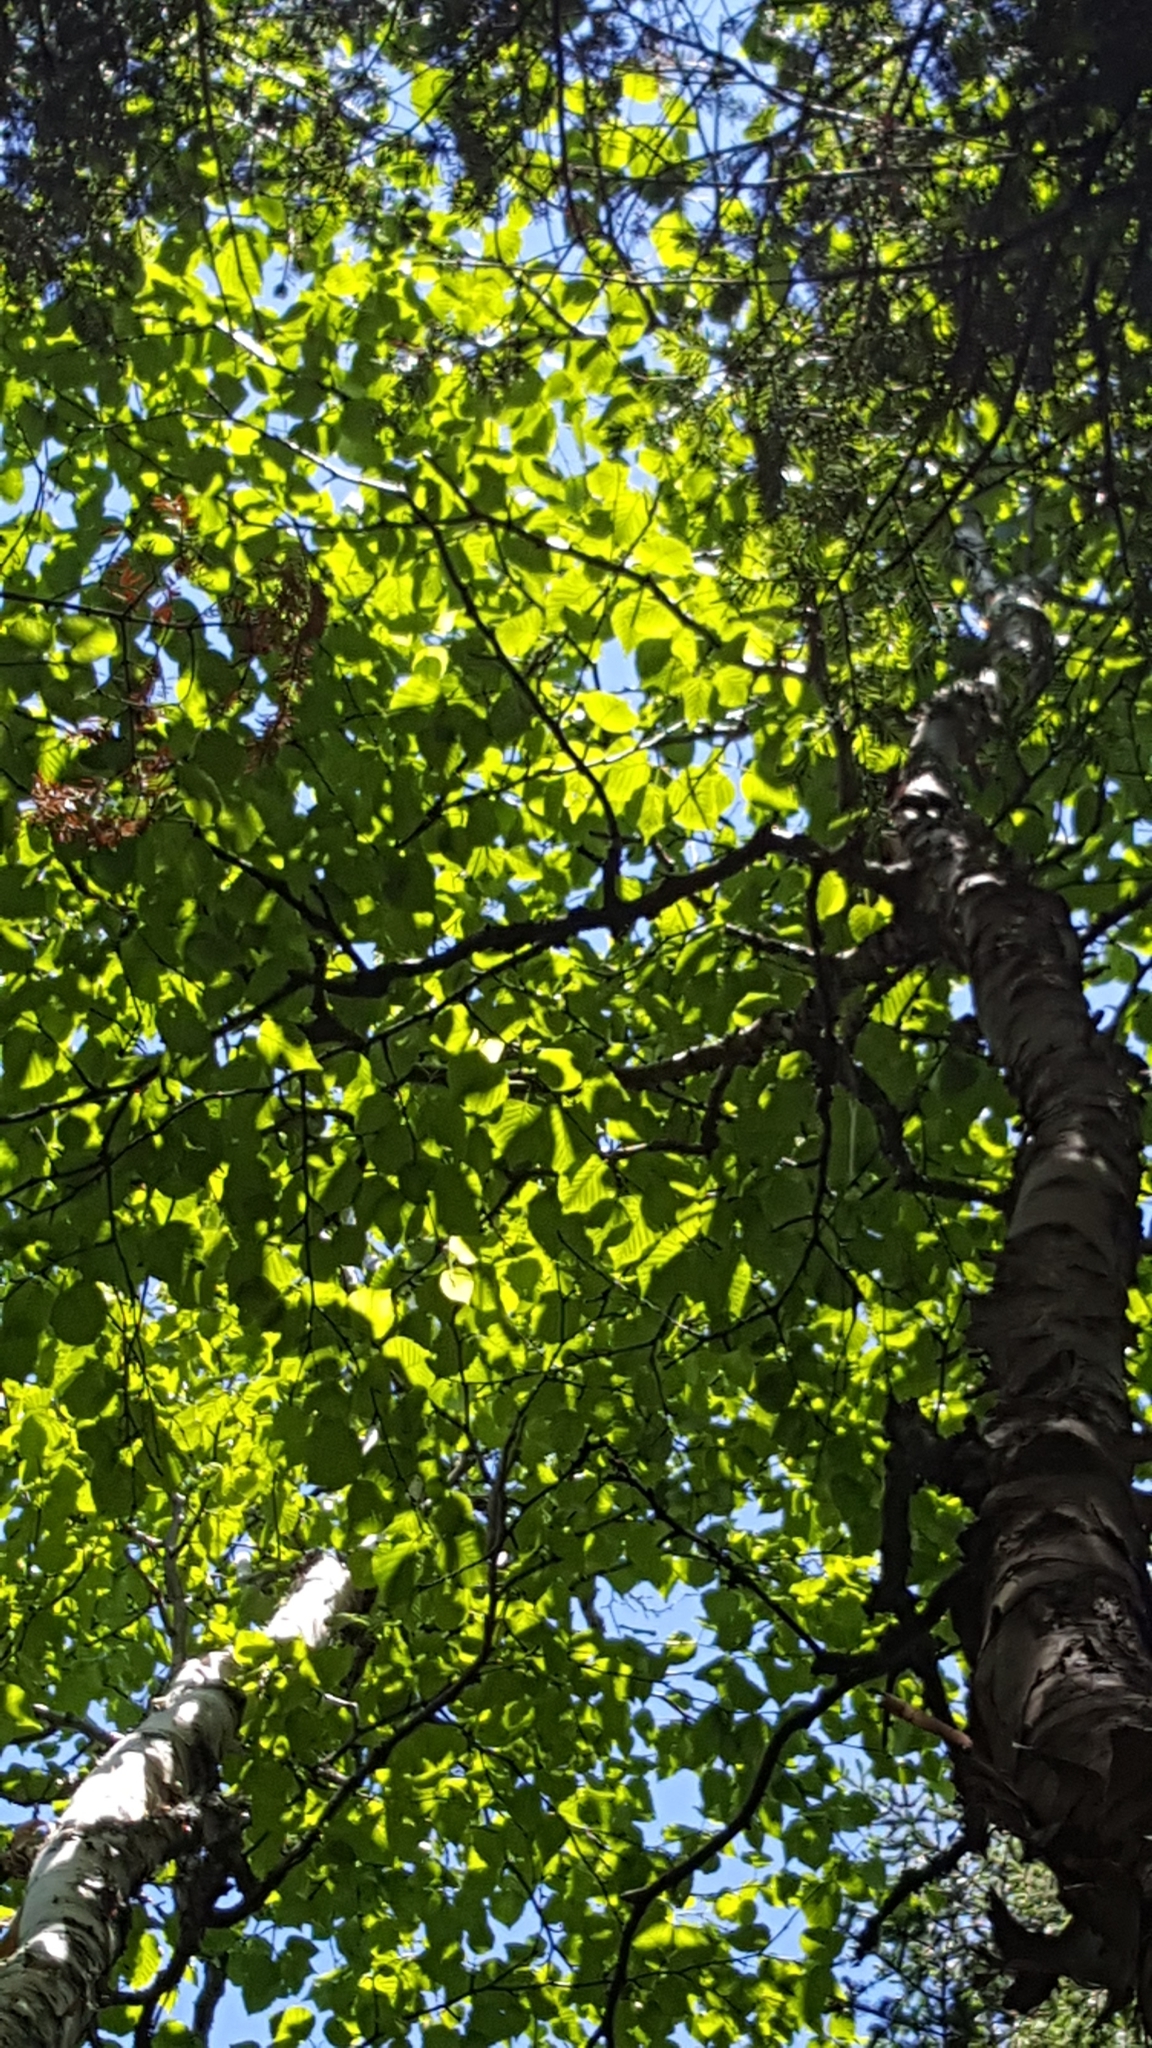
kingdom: Plantae
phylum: Tracheophyta
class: Magnoliopsida
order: Fagales
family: Betulaceae
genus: Betula
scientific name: Betula cordifolia
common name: Mountain white birch
